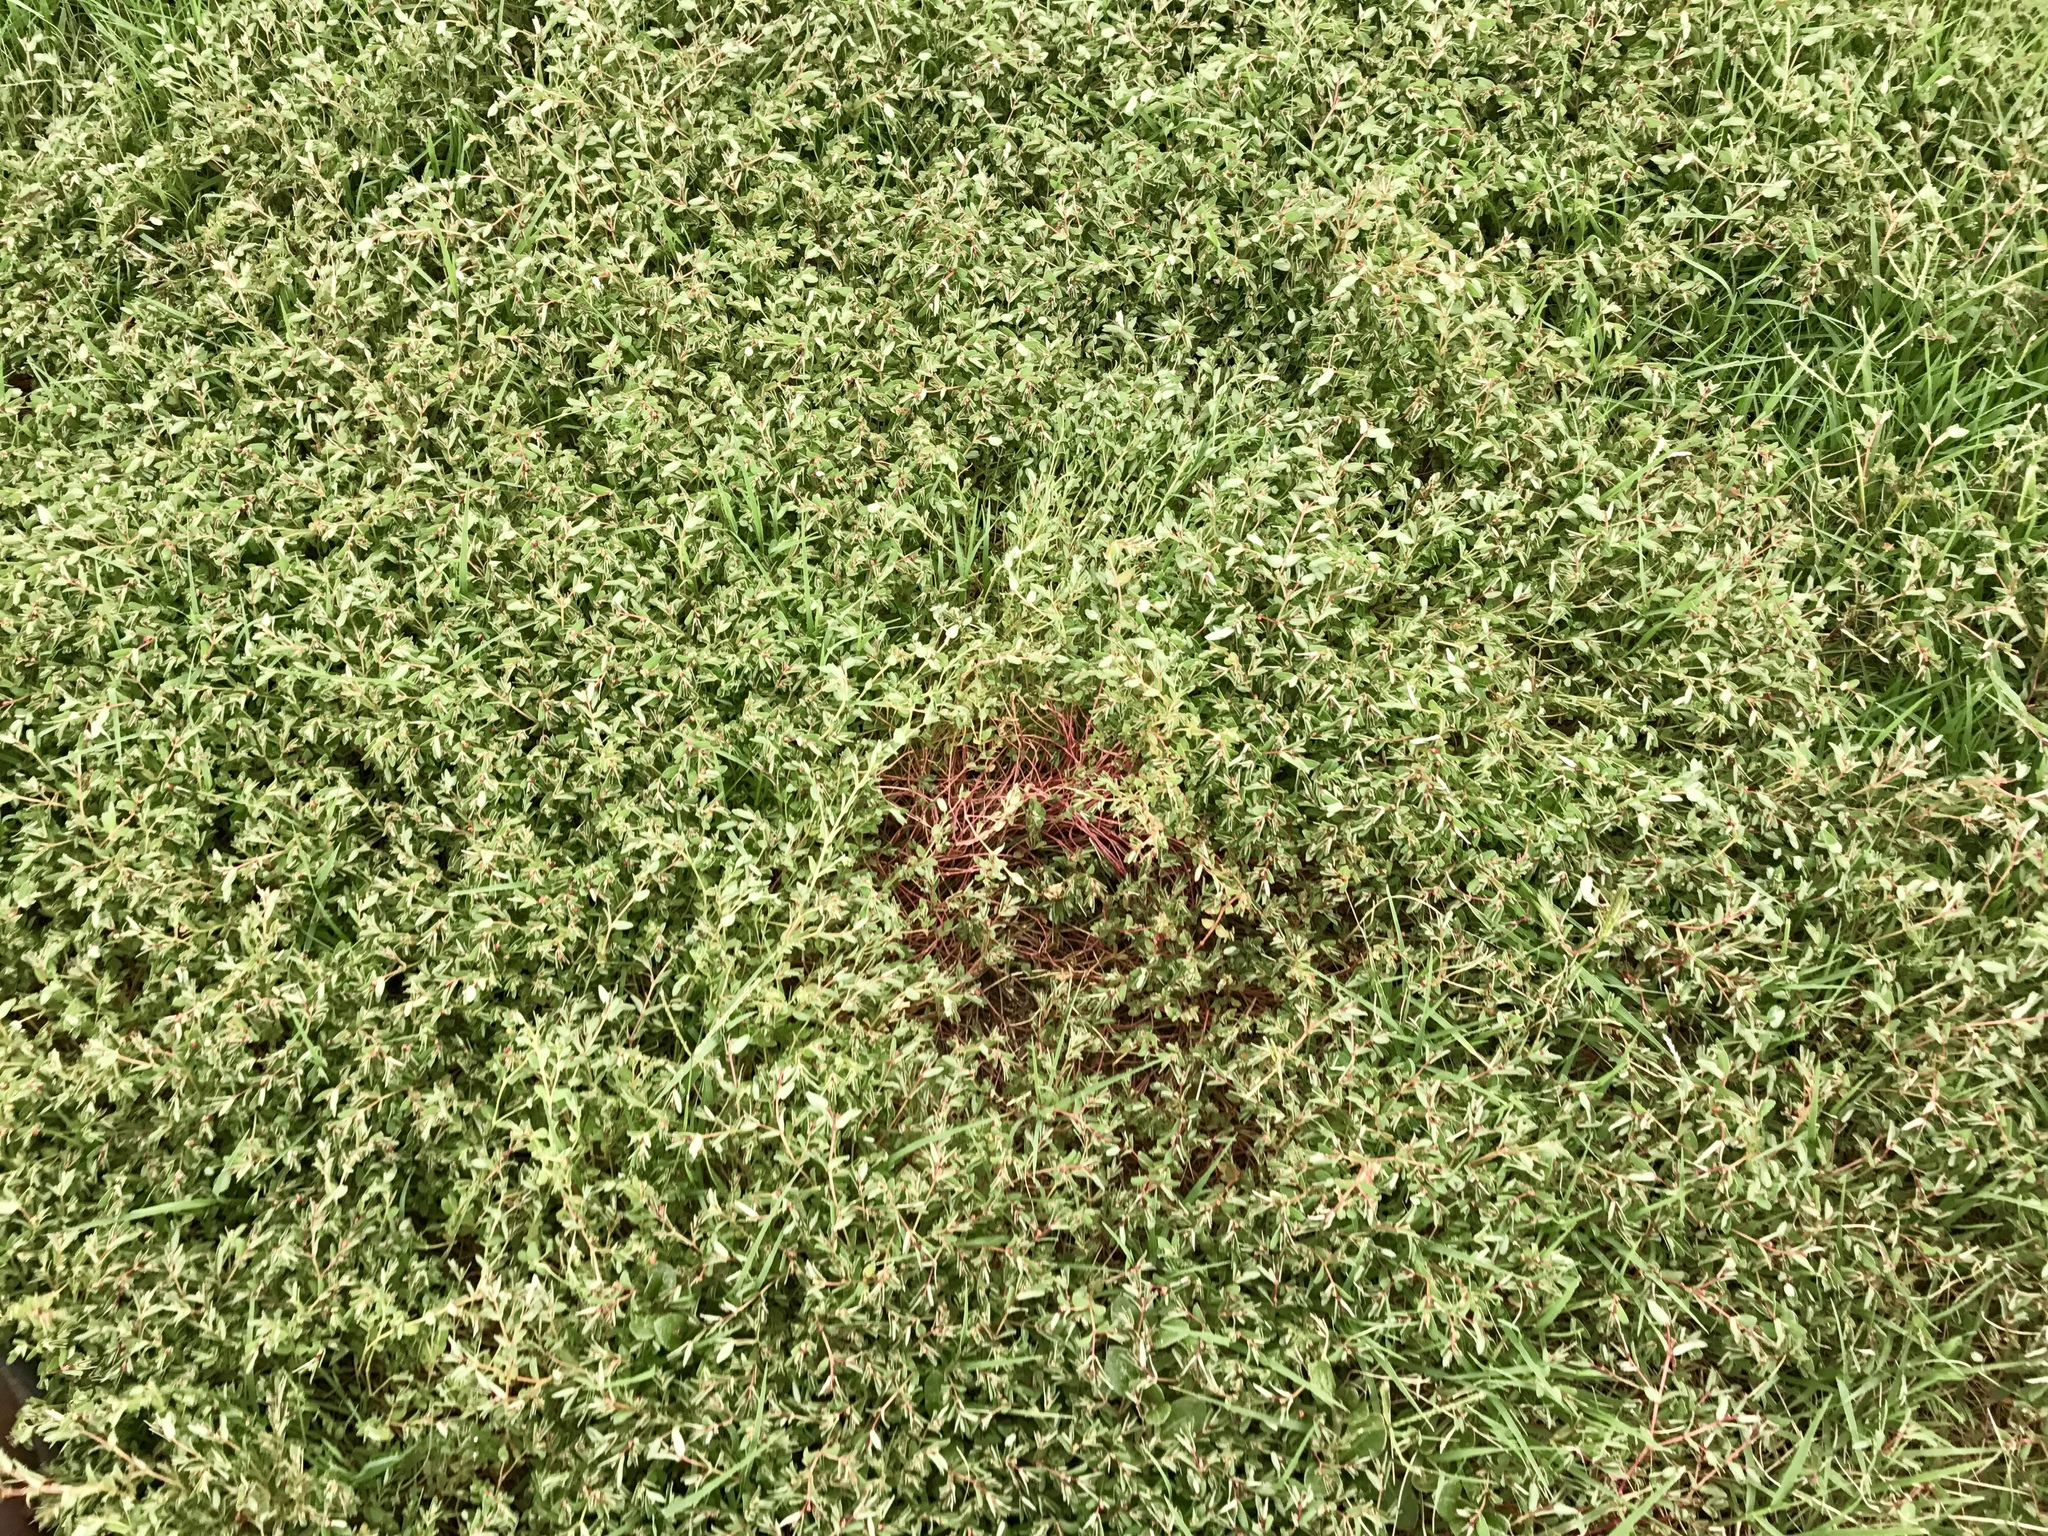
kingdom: Plantae
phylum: Tracheophyta
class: Magnoliopsida
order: Malpighiales
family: Euphorbiaceae
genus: Euphorbia
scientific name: Euphorbia vermiculata
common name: Hairy spurge
